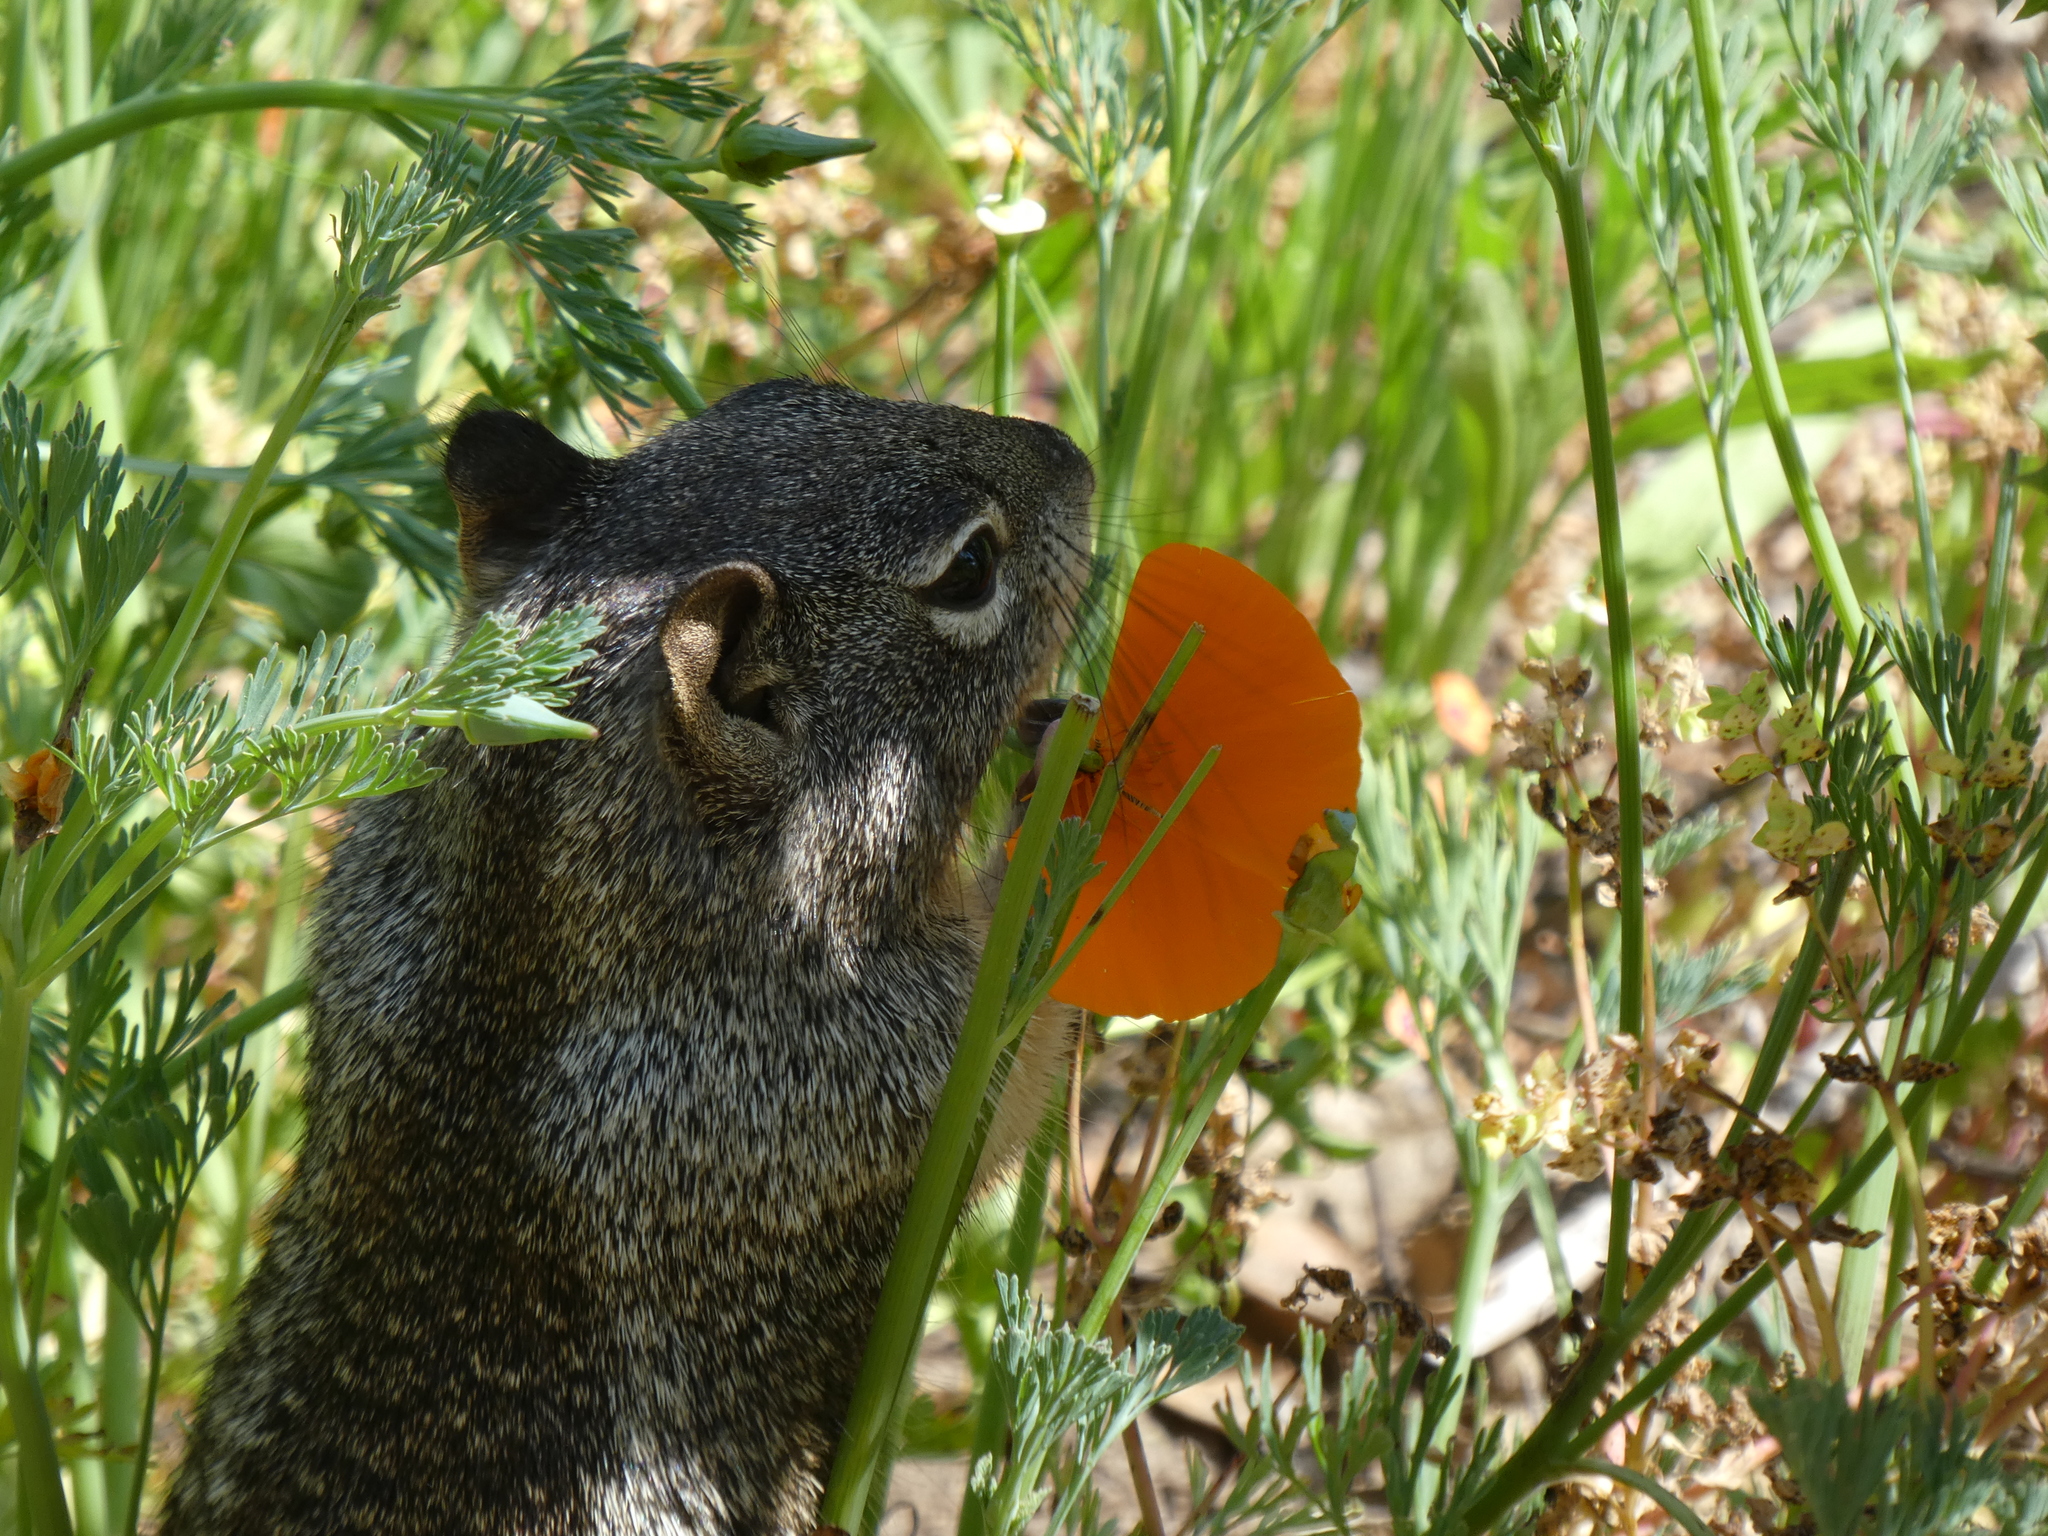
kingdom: Animalia
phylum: Chordata
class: Mammalia
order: Rodentia
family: Sciuridae
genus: Otospermophilus
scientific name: Otospermophilus beecheyi
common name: California ground squirrel
